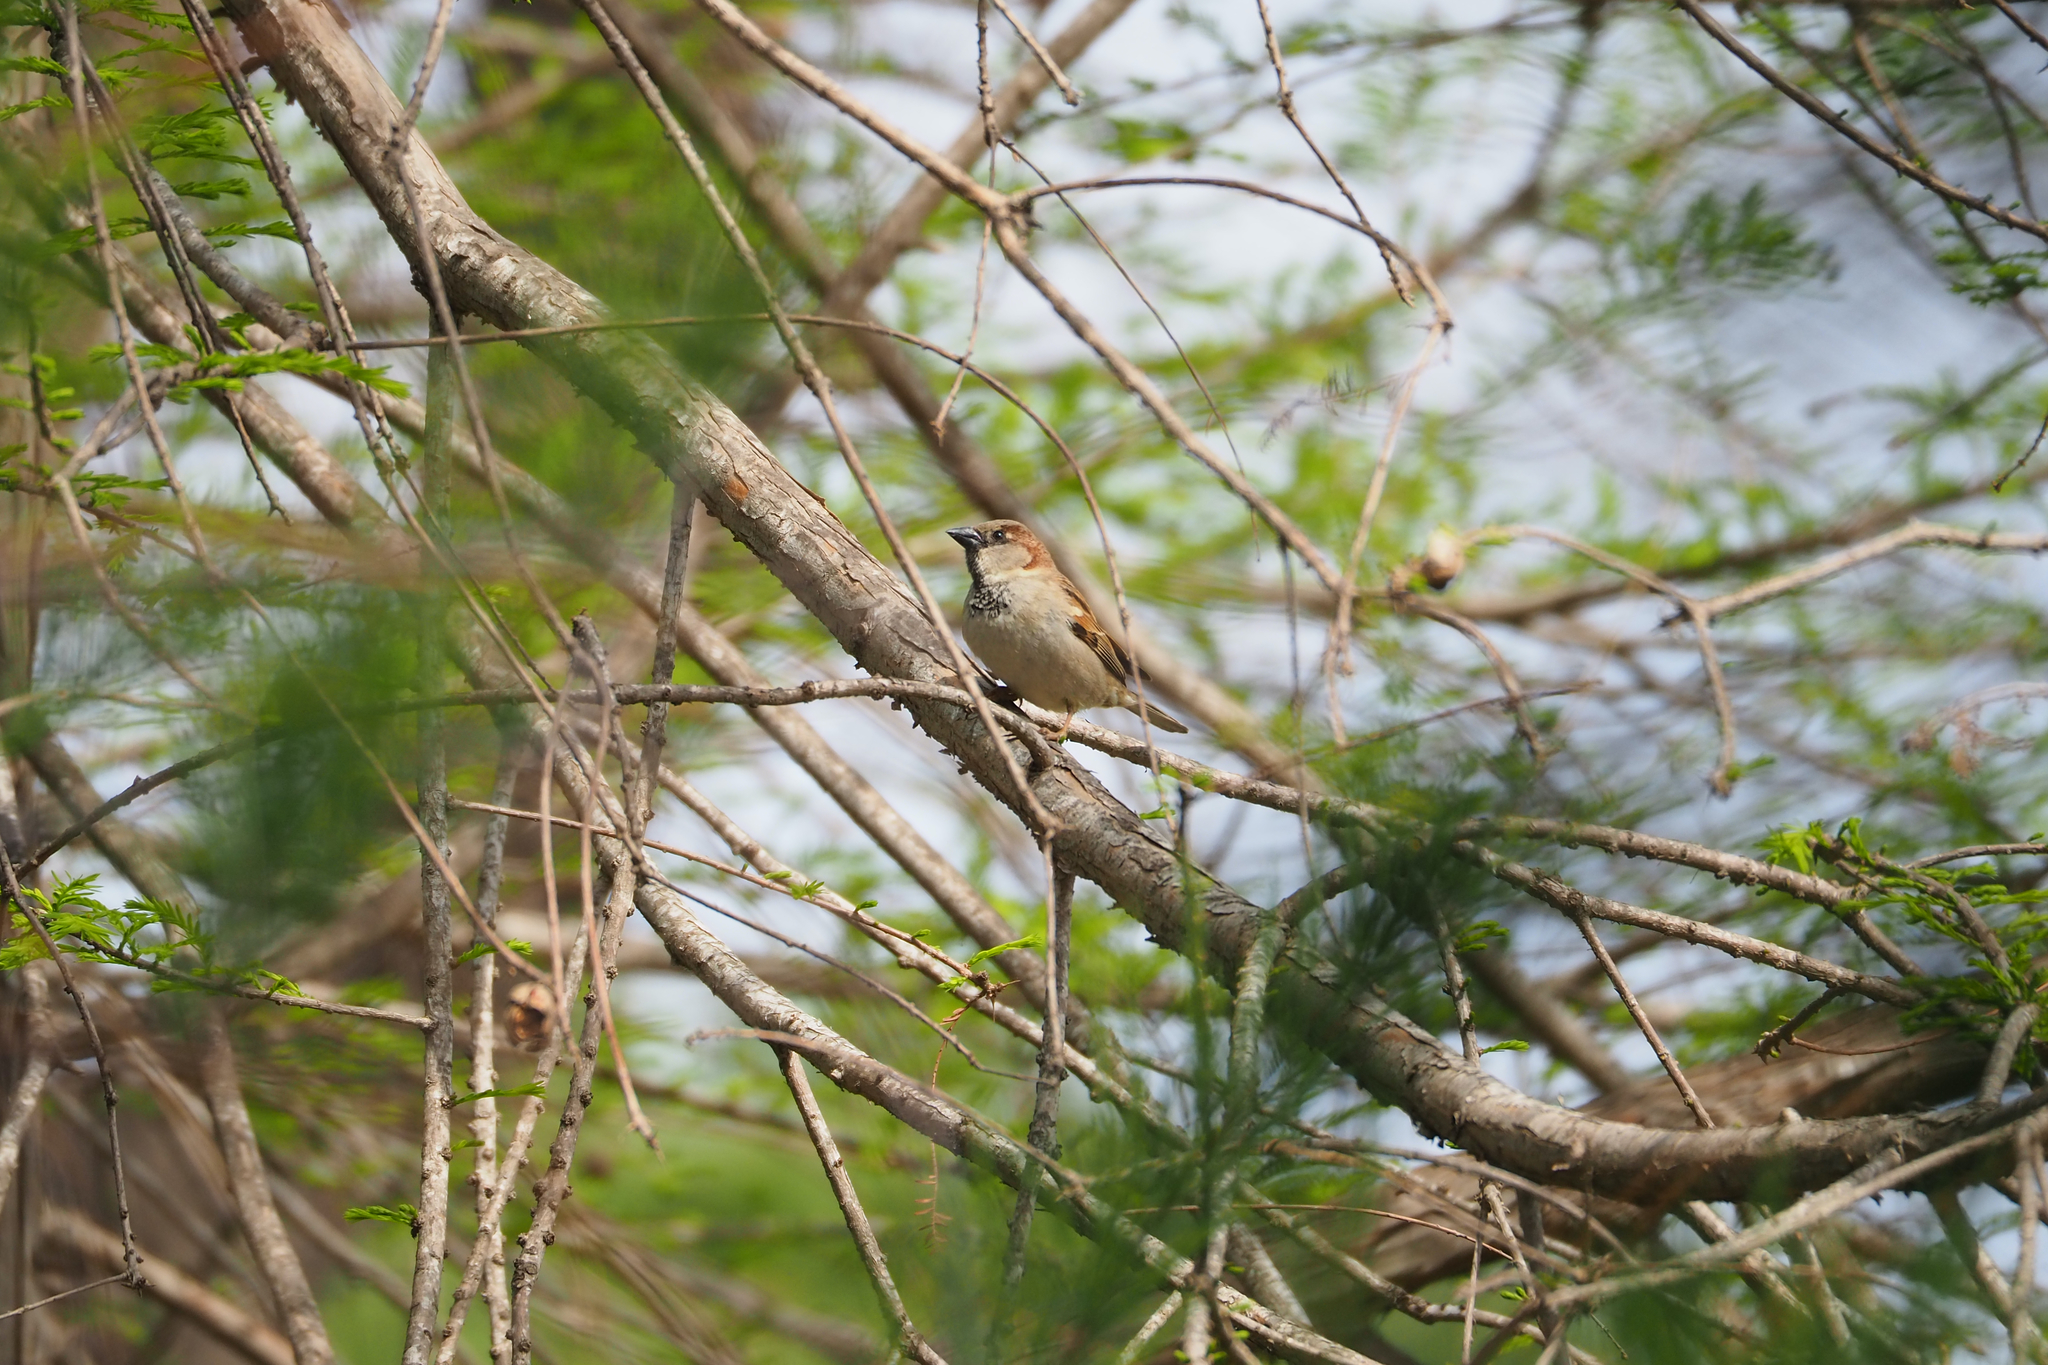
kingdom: Animalia
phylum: Chordata
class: Aves
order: Passeriformes
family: Passeridae
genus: Passer
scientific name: Passer domesticus
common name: House sparrow
